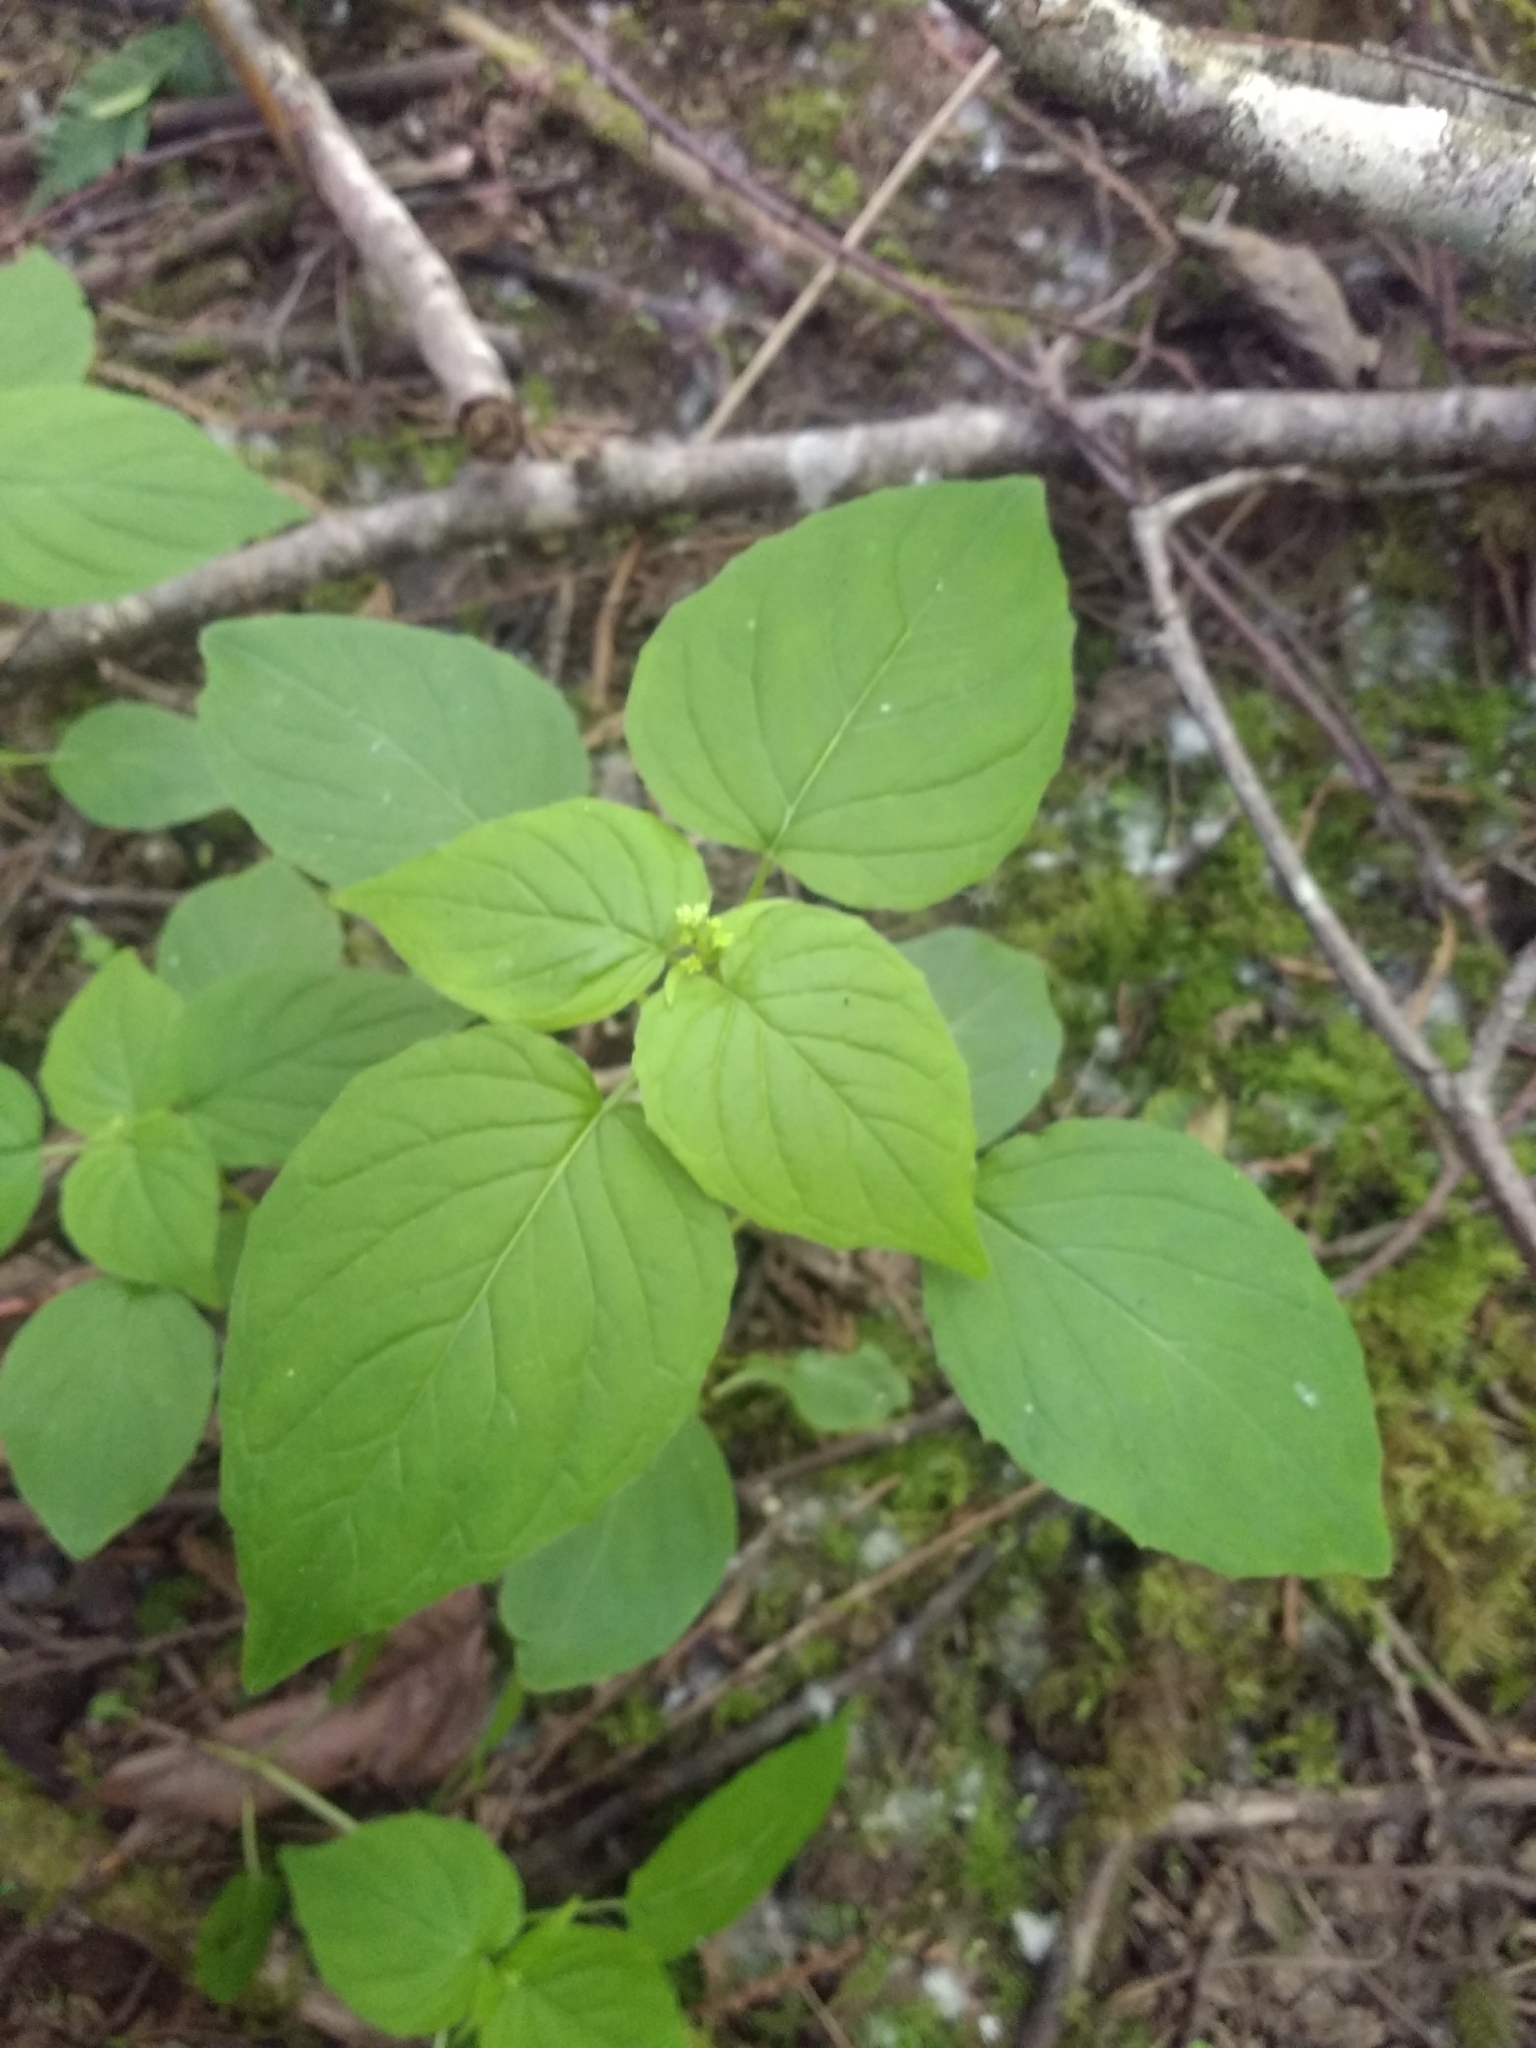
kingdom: Plantae
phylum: Tracheophyta
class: Magnoliopsida
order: Myrtales
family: Onagraceae
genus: Circaea
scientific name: Circaea alpina
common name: Alpine enchanter's-nightshade
